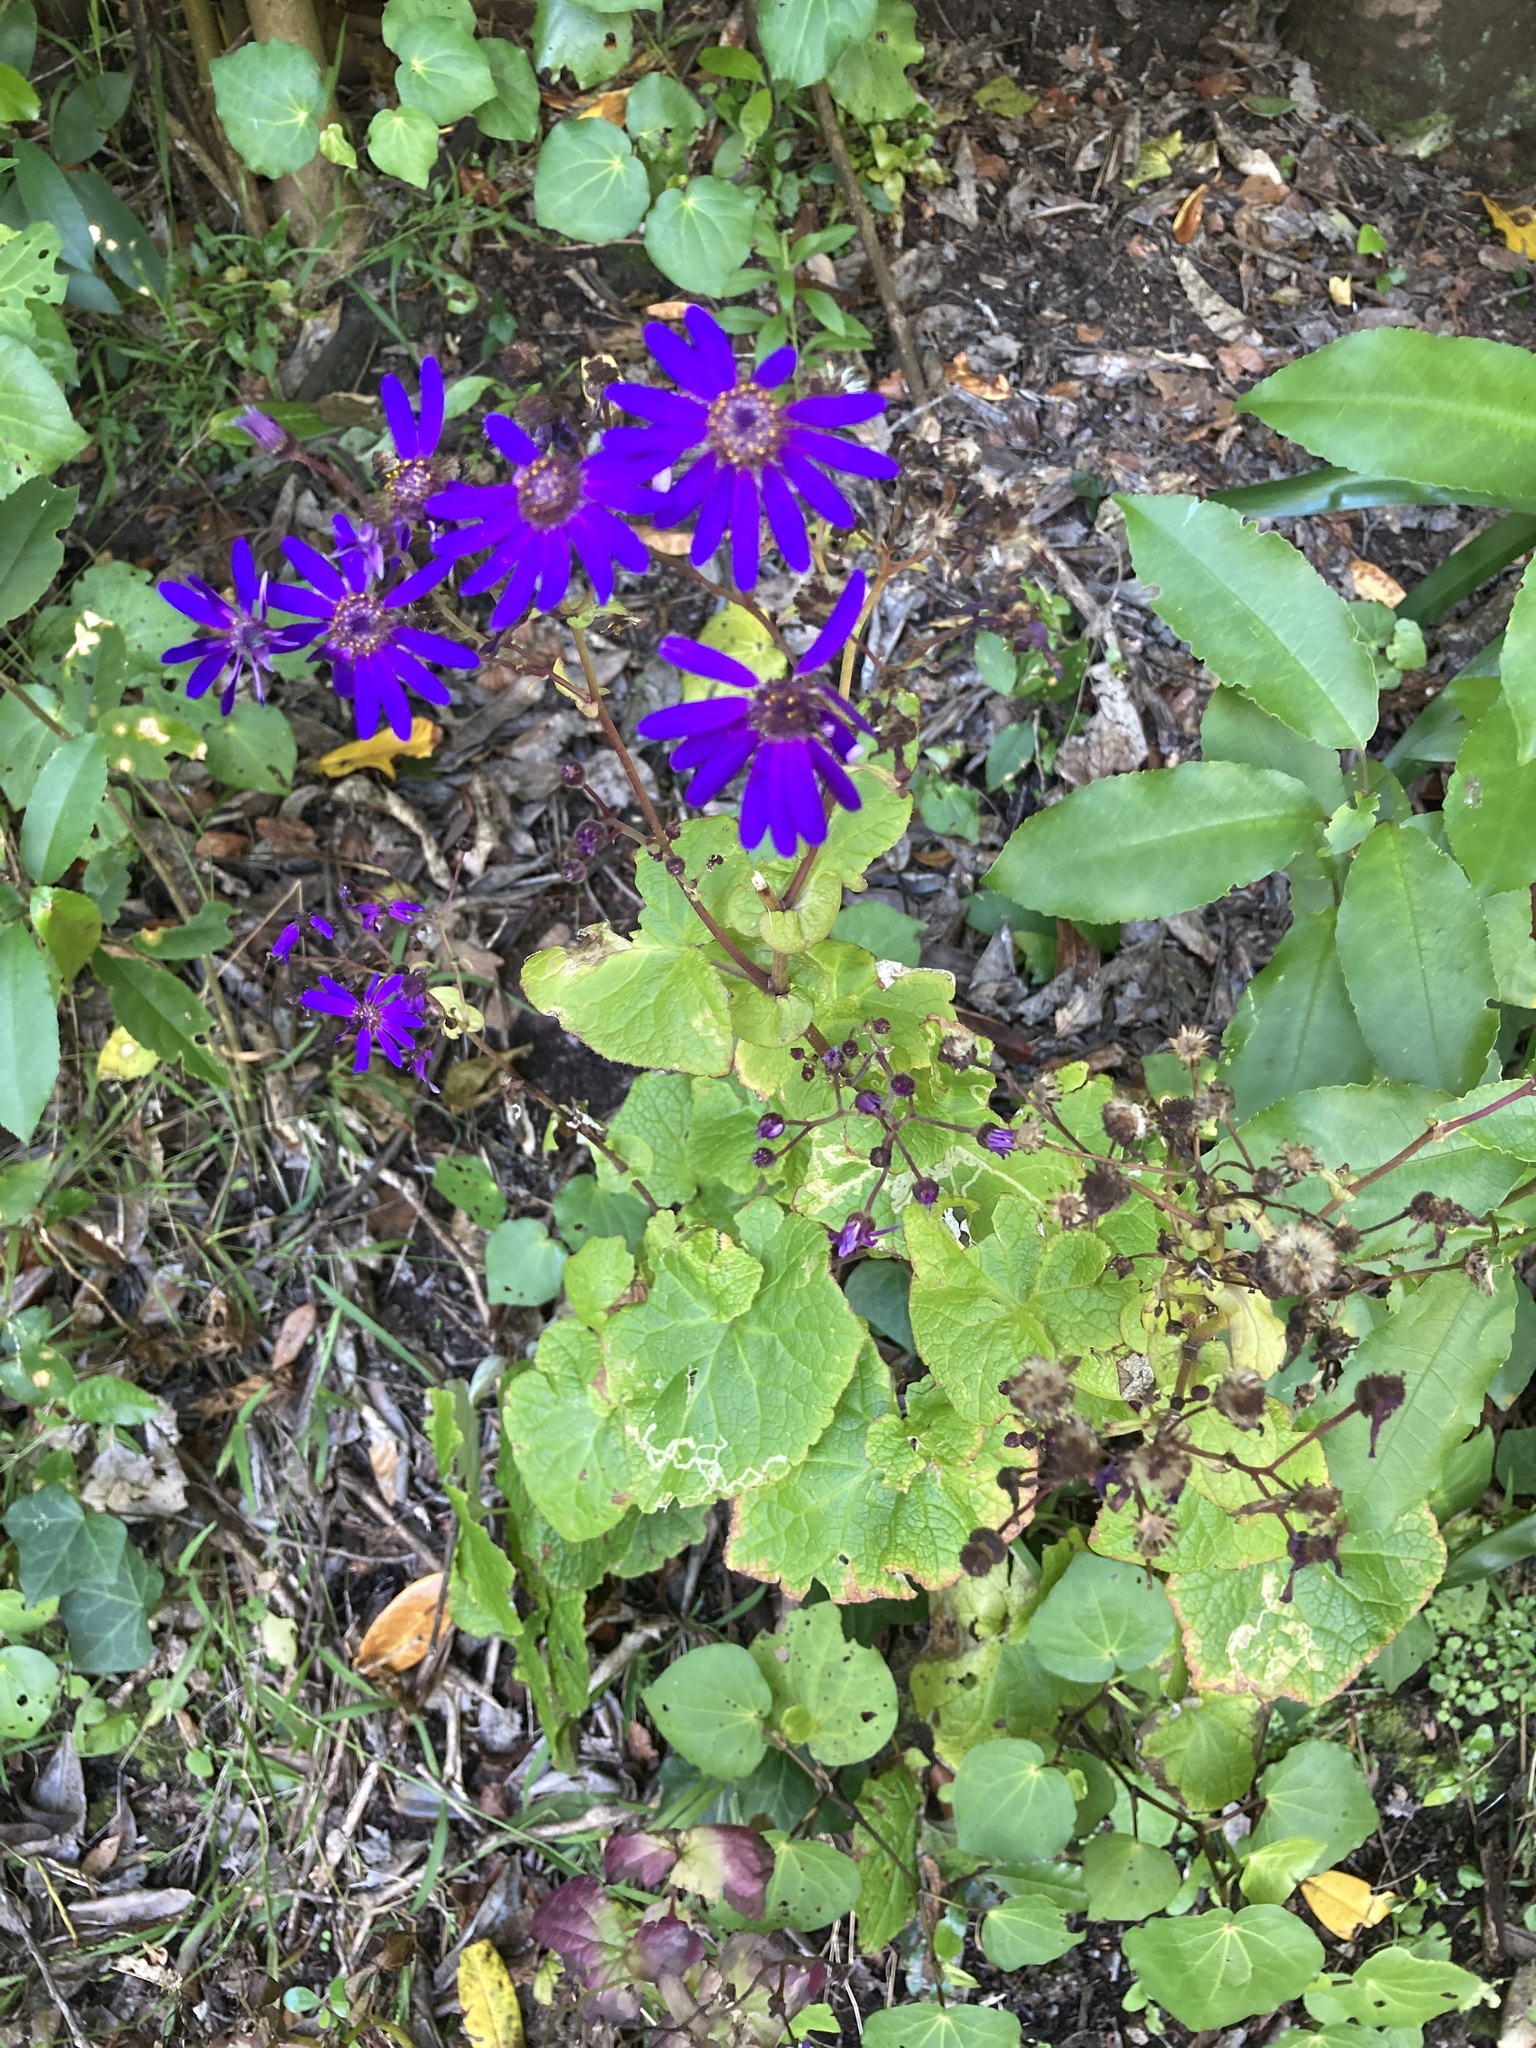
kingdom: Plantae
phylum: Tracheophyta
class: Magnoliopsida
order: Asterales
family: Asteraceae
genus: Pericallis
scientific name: Pericallis hybrida
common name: Cineraria
